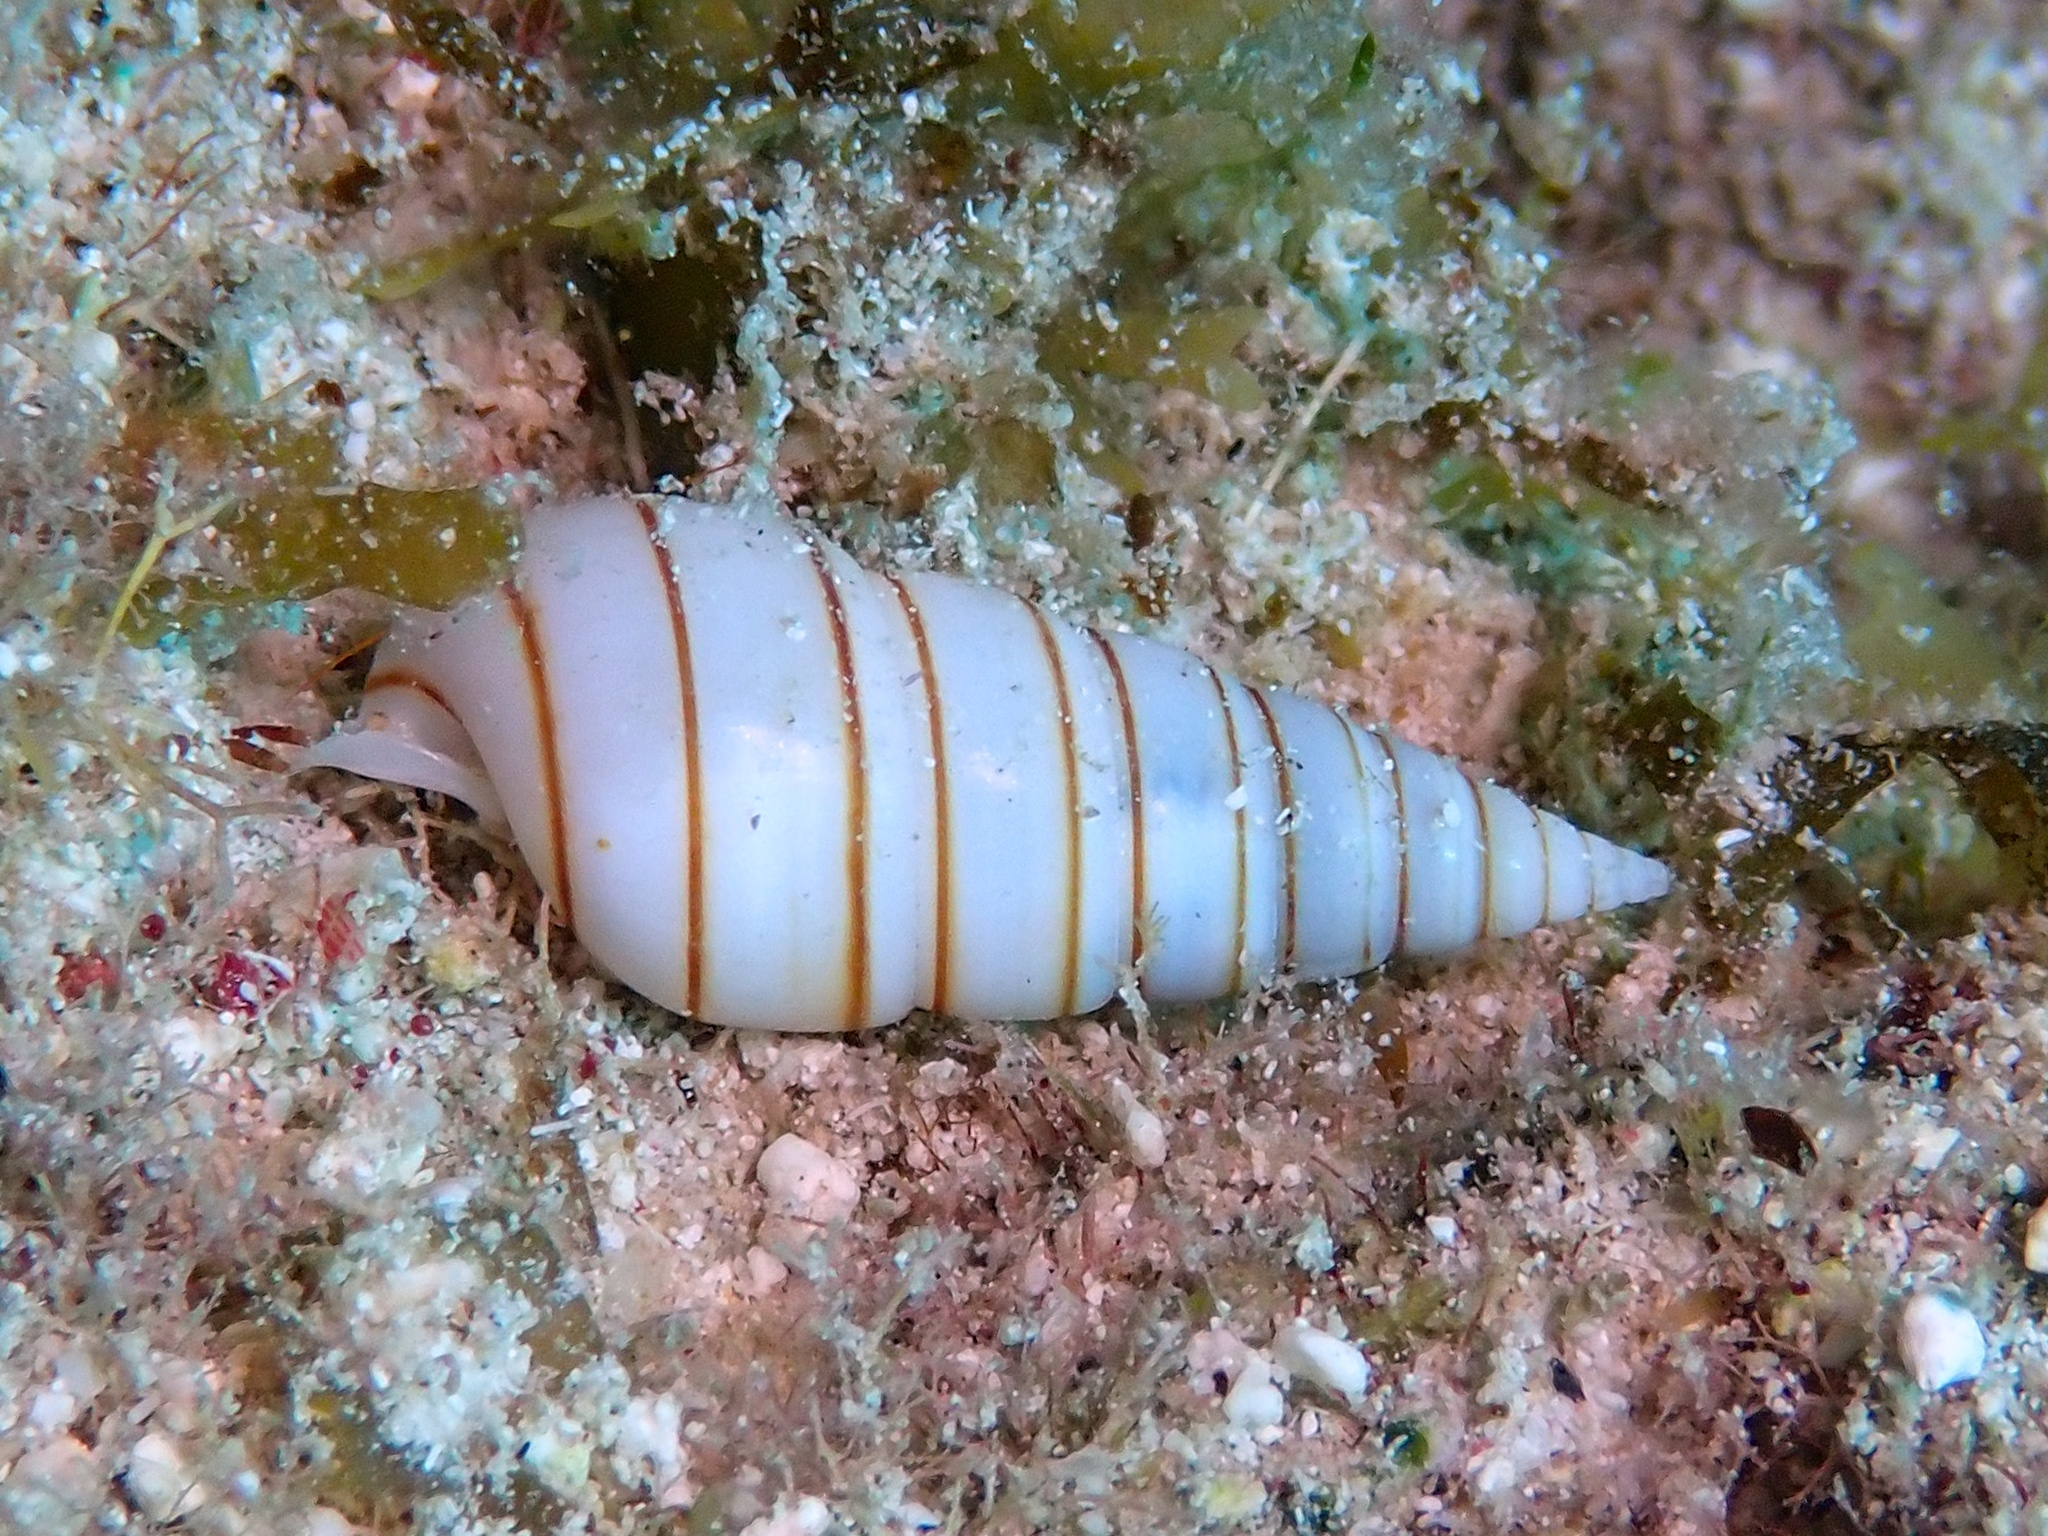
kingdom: Animalia
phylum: Mollusca
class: Gastropoda
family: Pyramidellidae
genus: Pyramidella
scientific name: Pyramidella dolabrata
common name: Giant atlantic pyram
